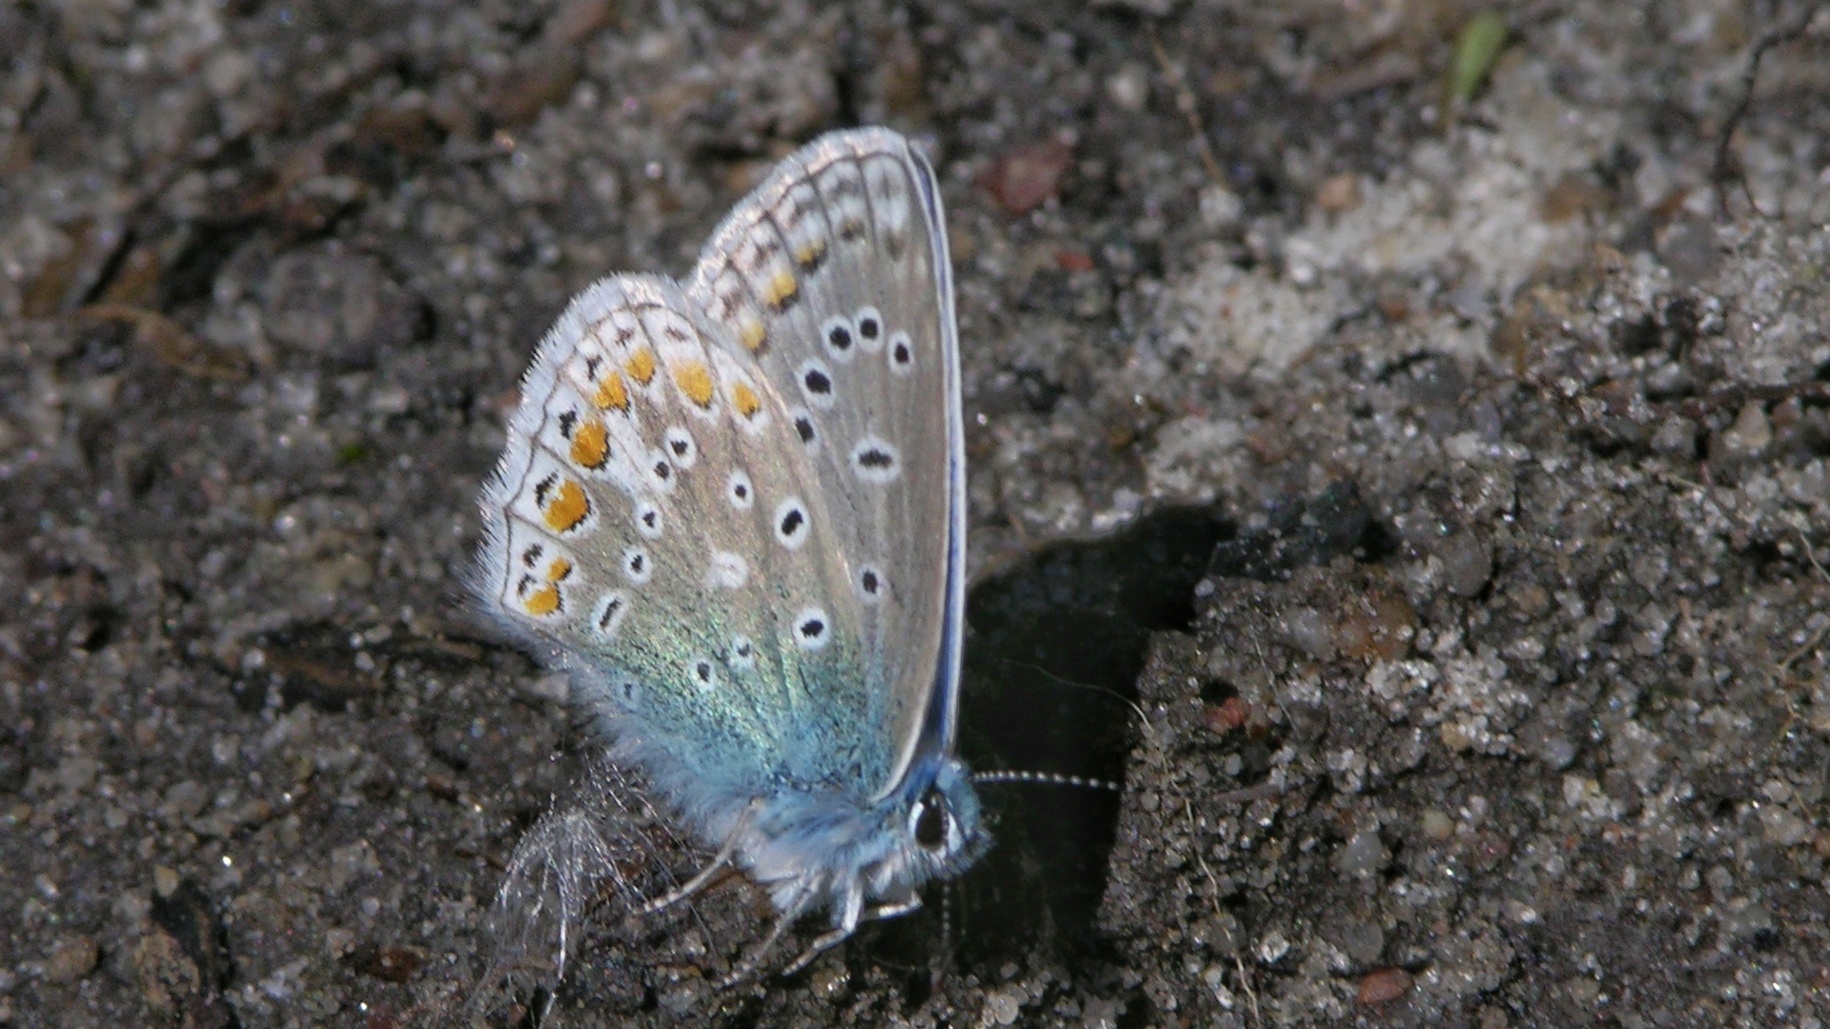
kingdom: Animalia
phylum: Arthropoda
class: Insecta
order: Lepidoptera
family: Lycaenidae
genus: Polyommatus
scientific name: Polyommatus icarus
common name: Common blue
